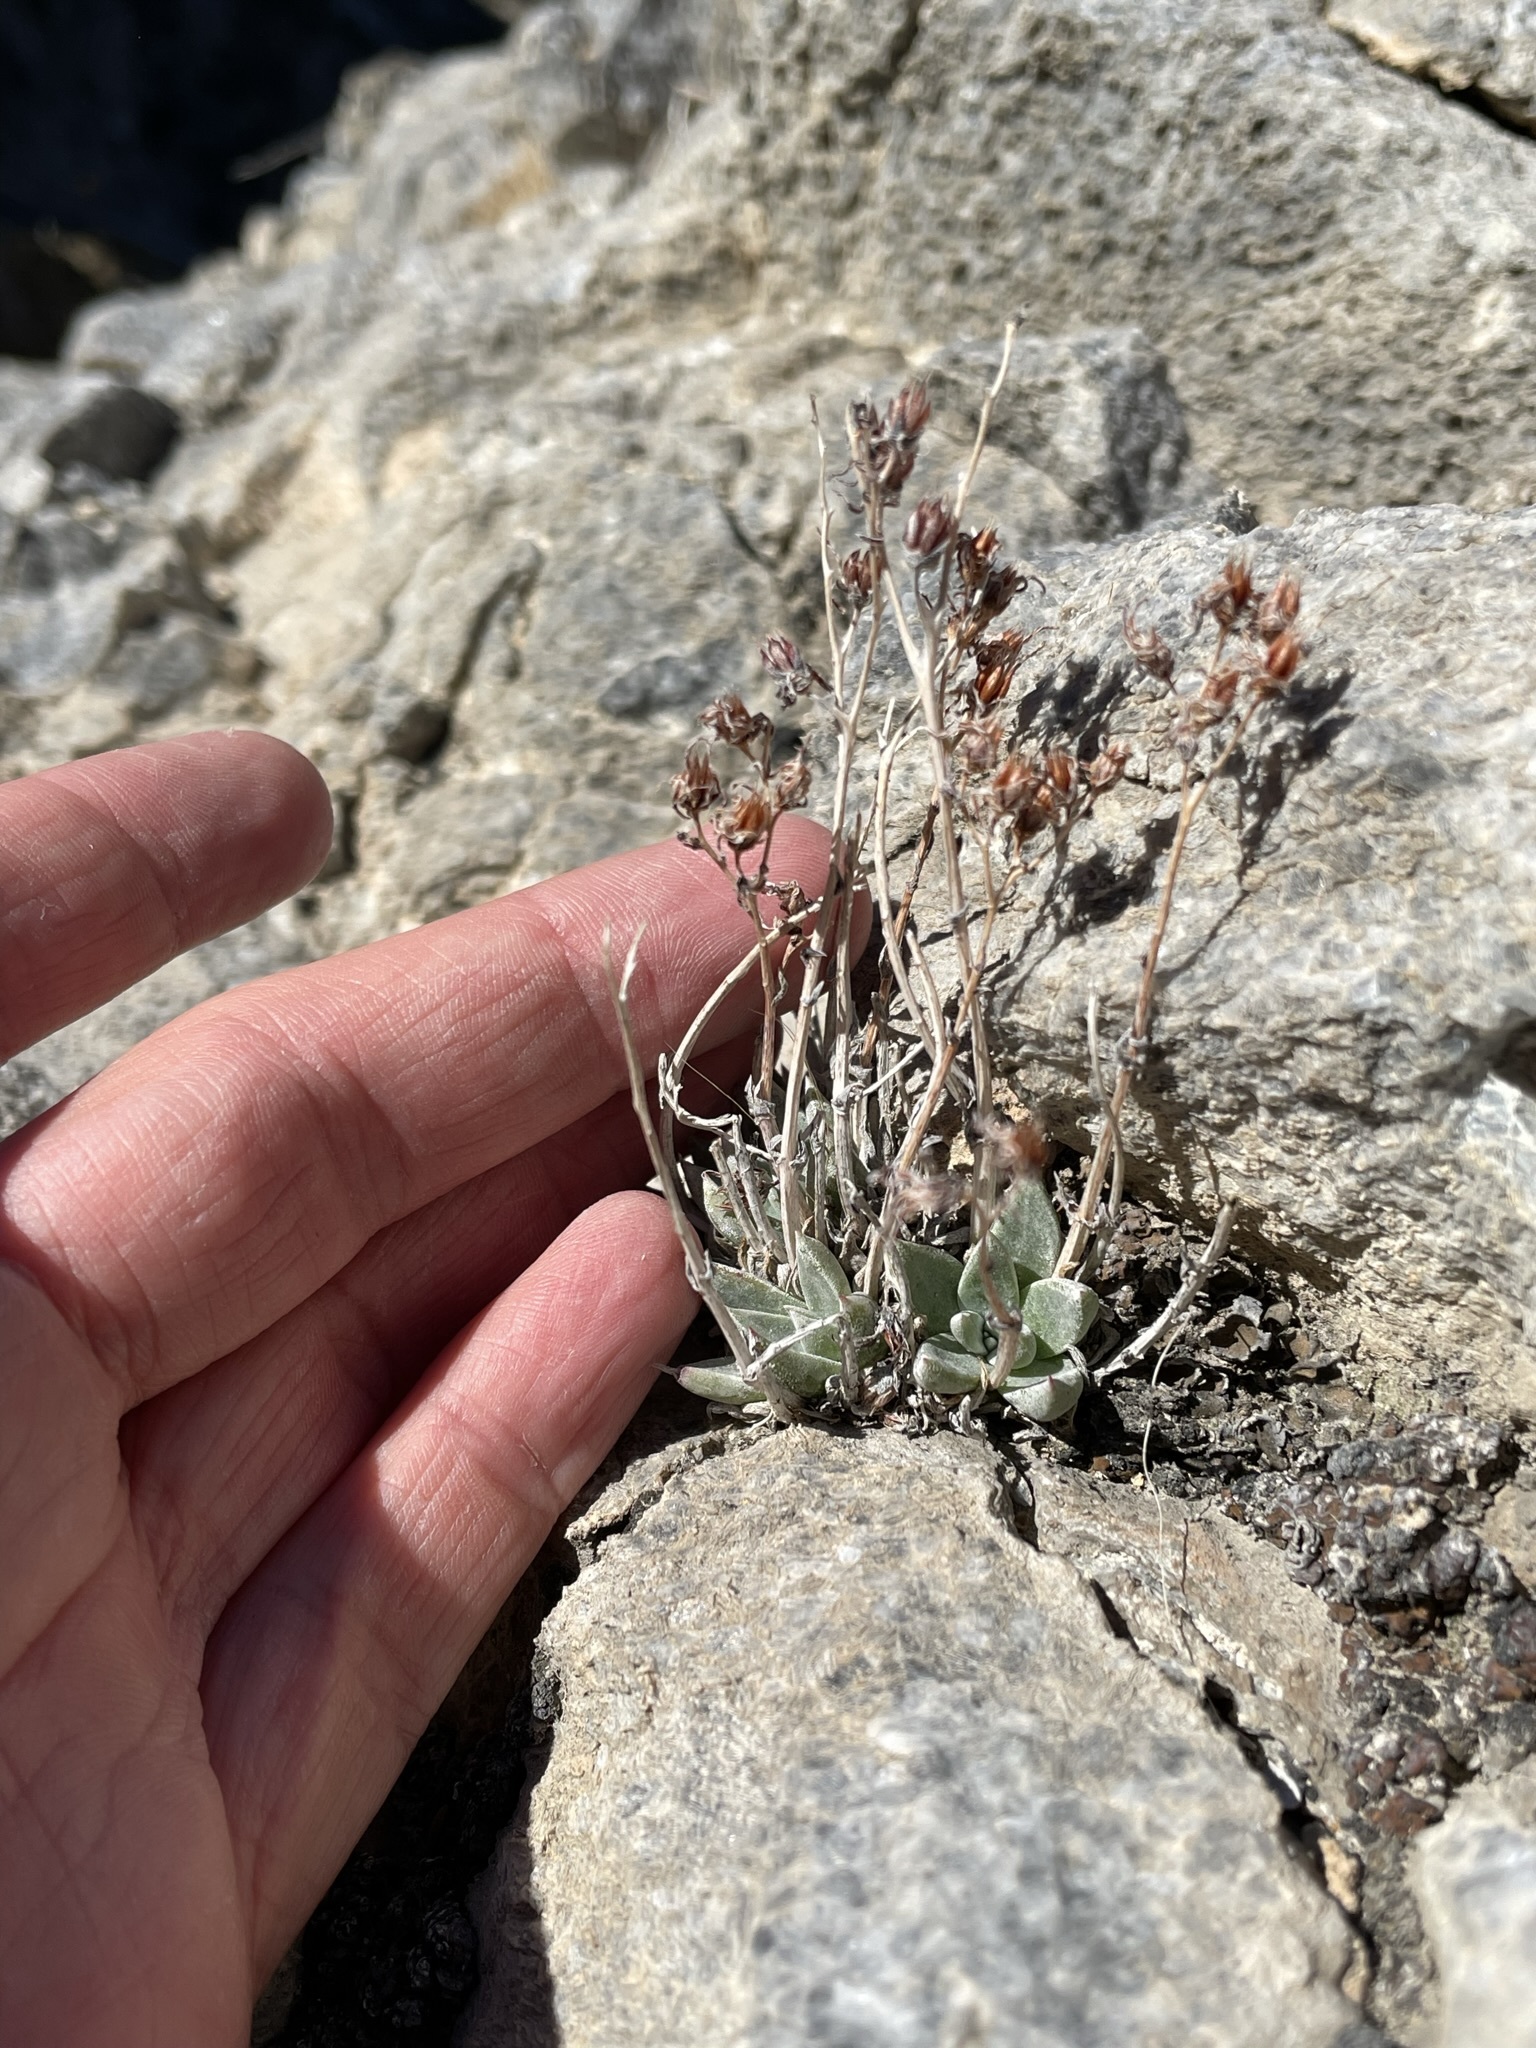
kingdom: Plantae
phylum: Tracheophyta
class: Magnoliopsida
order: Saxifragales
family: Crassulaceae
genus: Dudleya
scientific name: Dudleya abramsii
